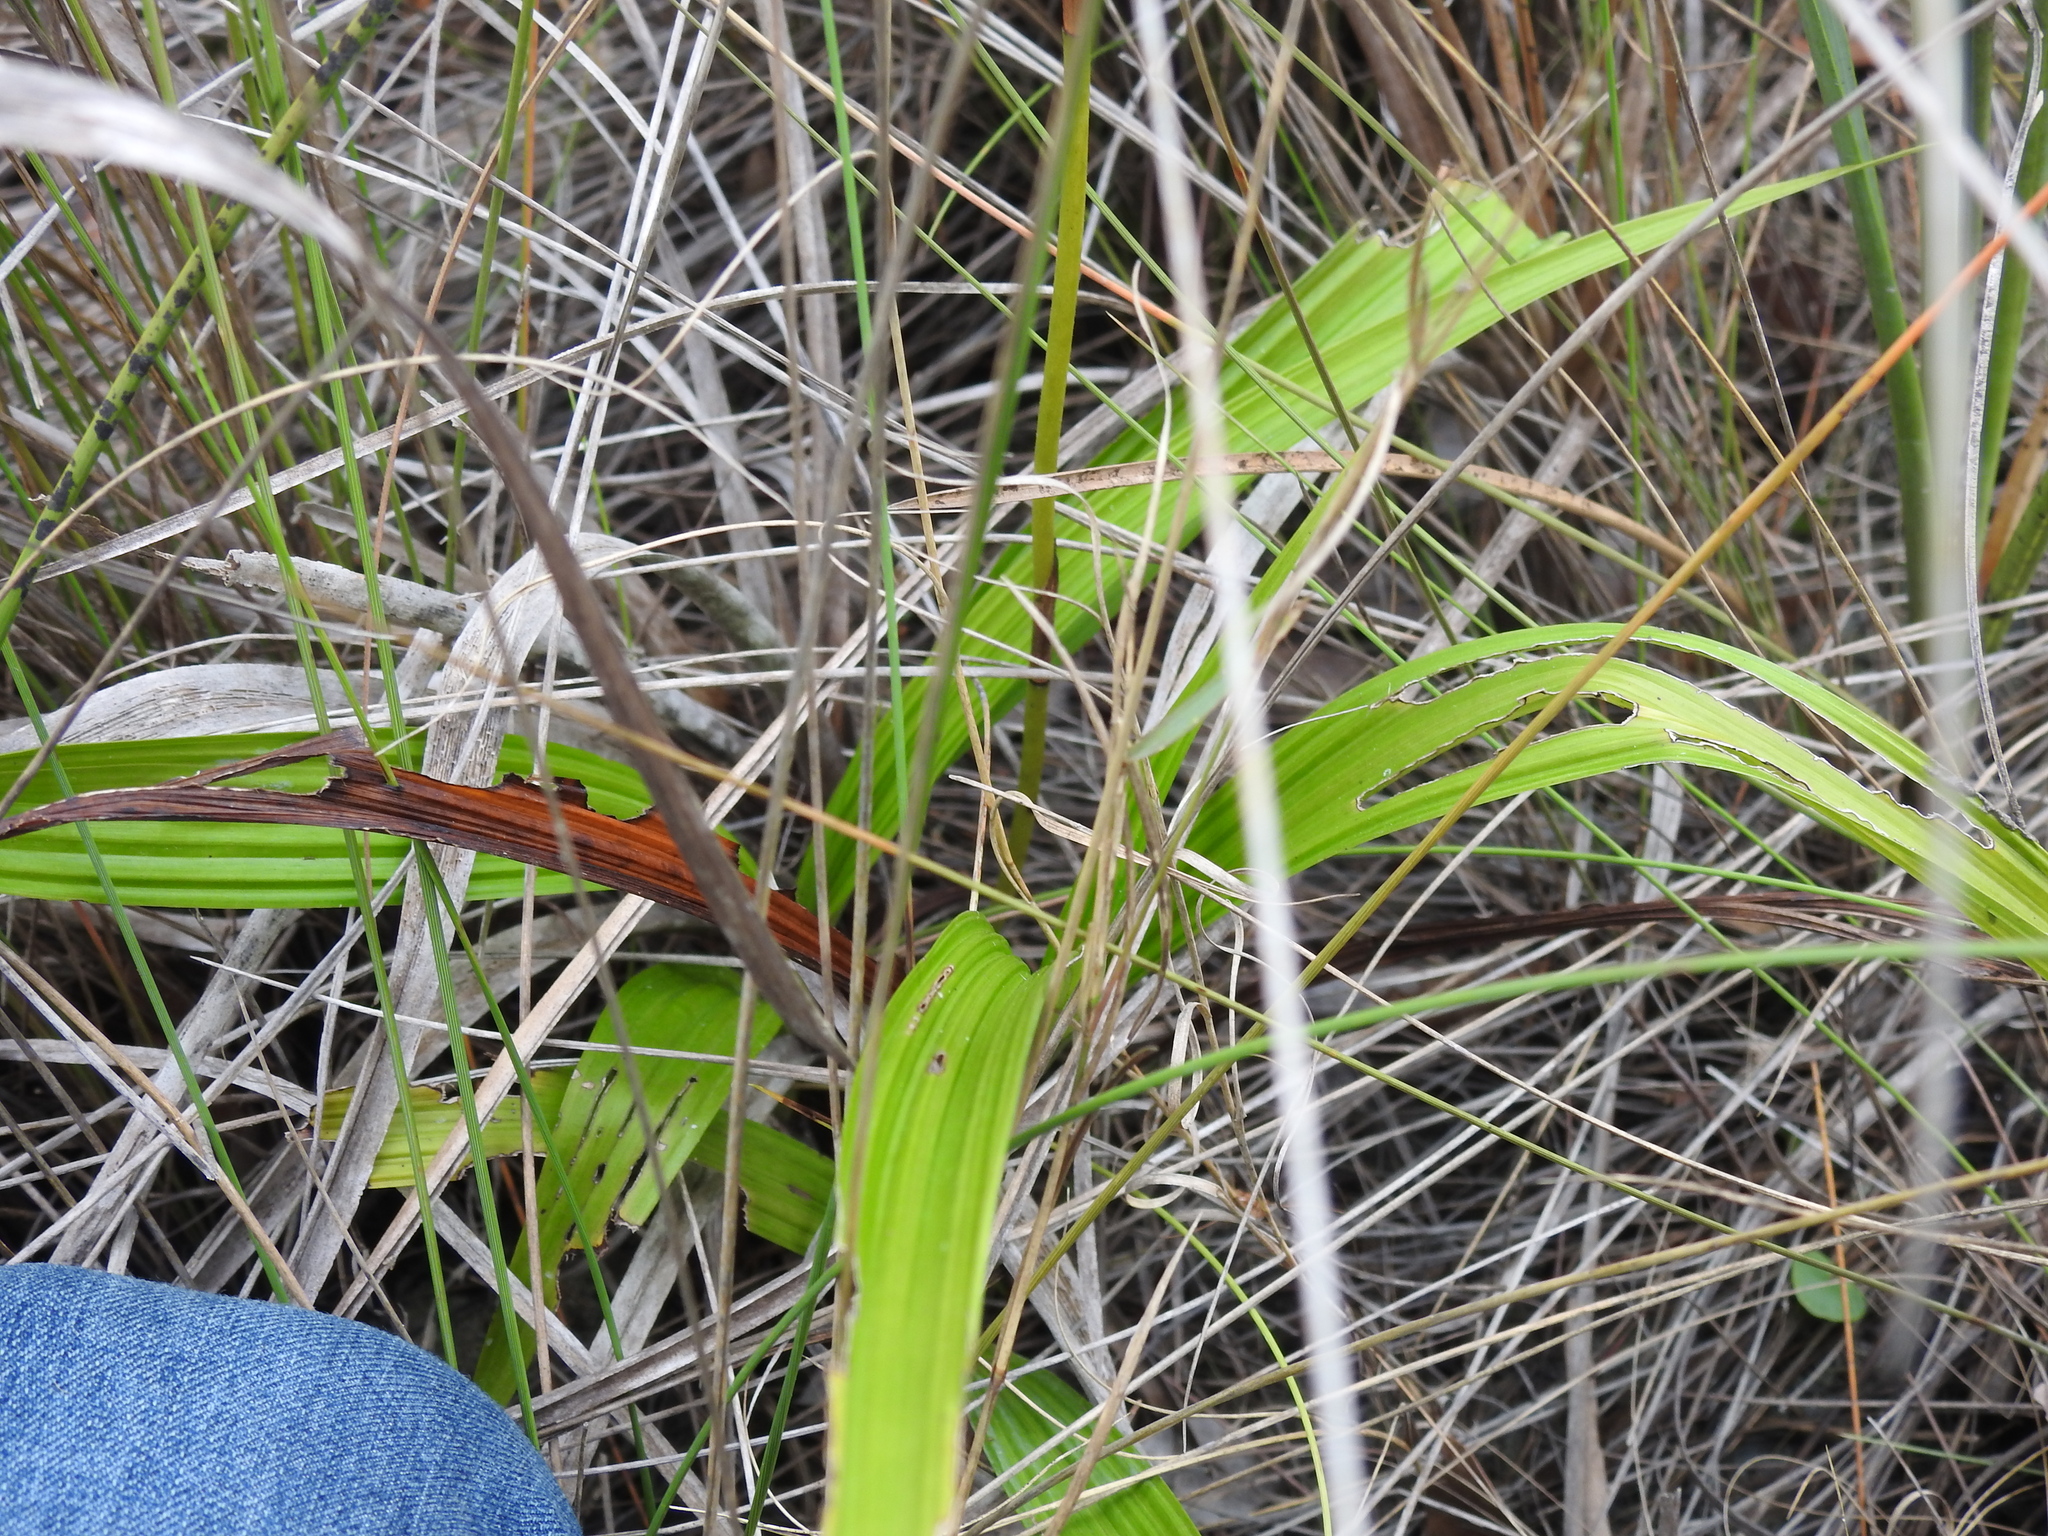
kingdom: Plantae
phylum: Tracheophyta
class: Liliopsida
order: Asparagales
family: Orchidaceae
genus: Spathoglottis
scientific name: Spathoglottis plicata
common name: Philippine ground orchid
